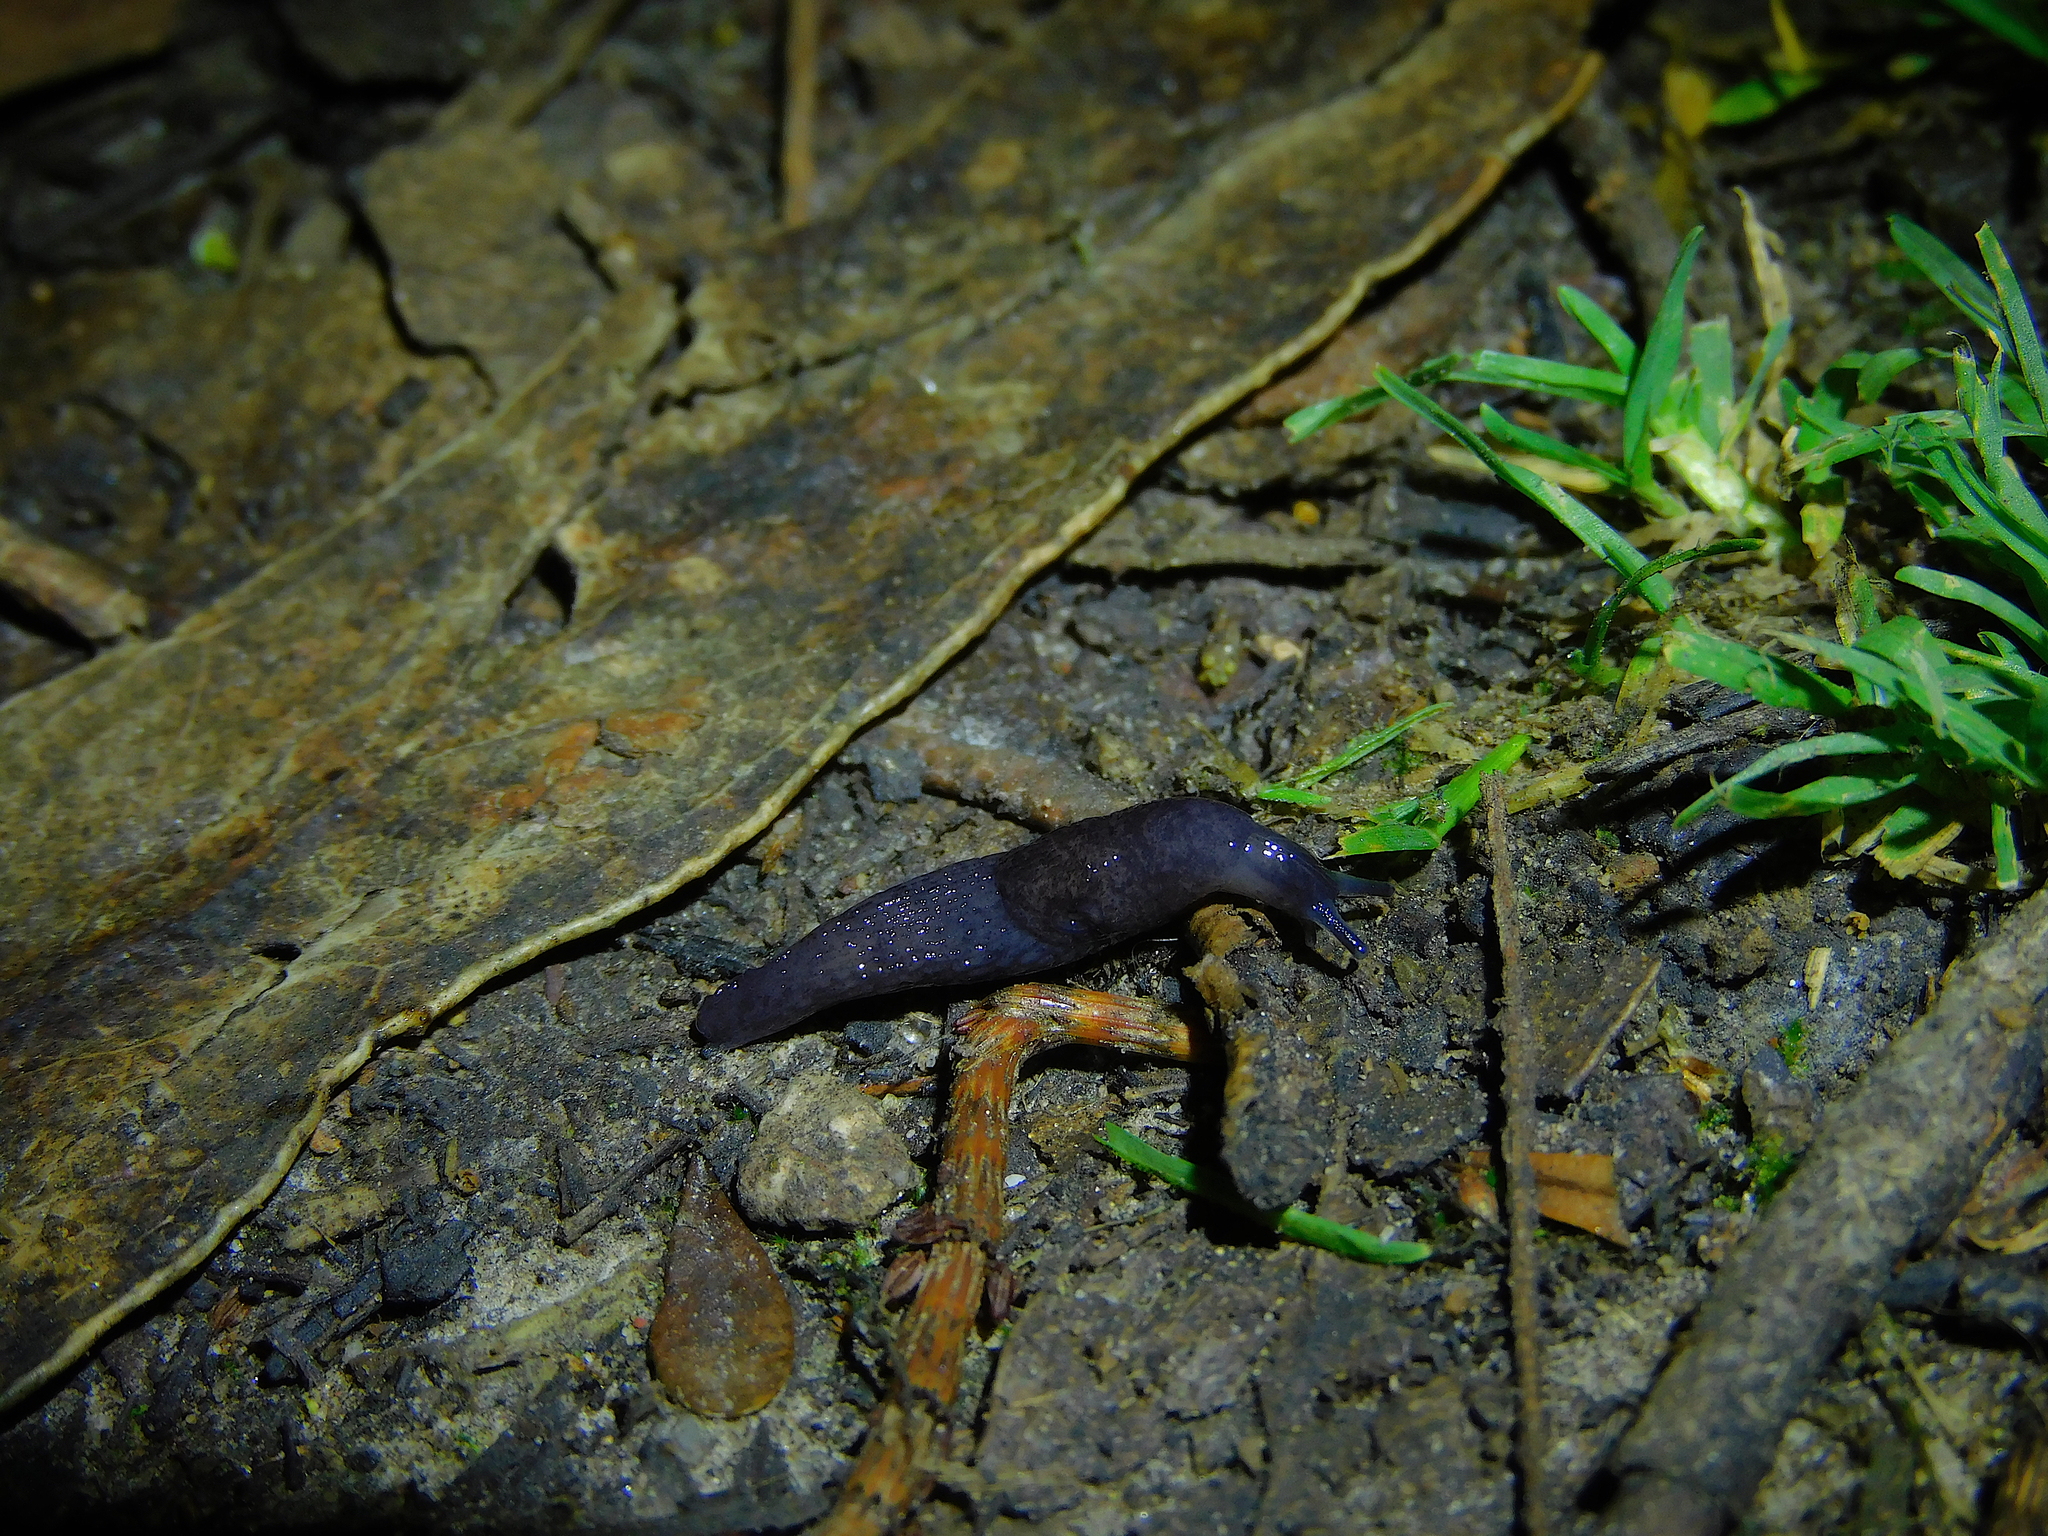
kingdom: Animalia
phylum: Mollusca
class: Gastropoda
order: Stylommatophora
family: Agriolimacidae
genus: Deroceras
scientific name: Deroceras reticulatum
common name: Gray field slug
